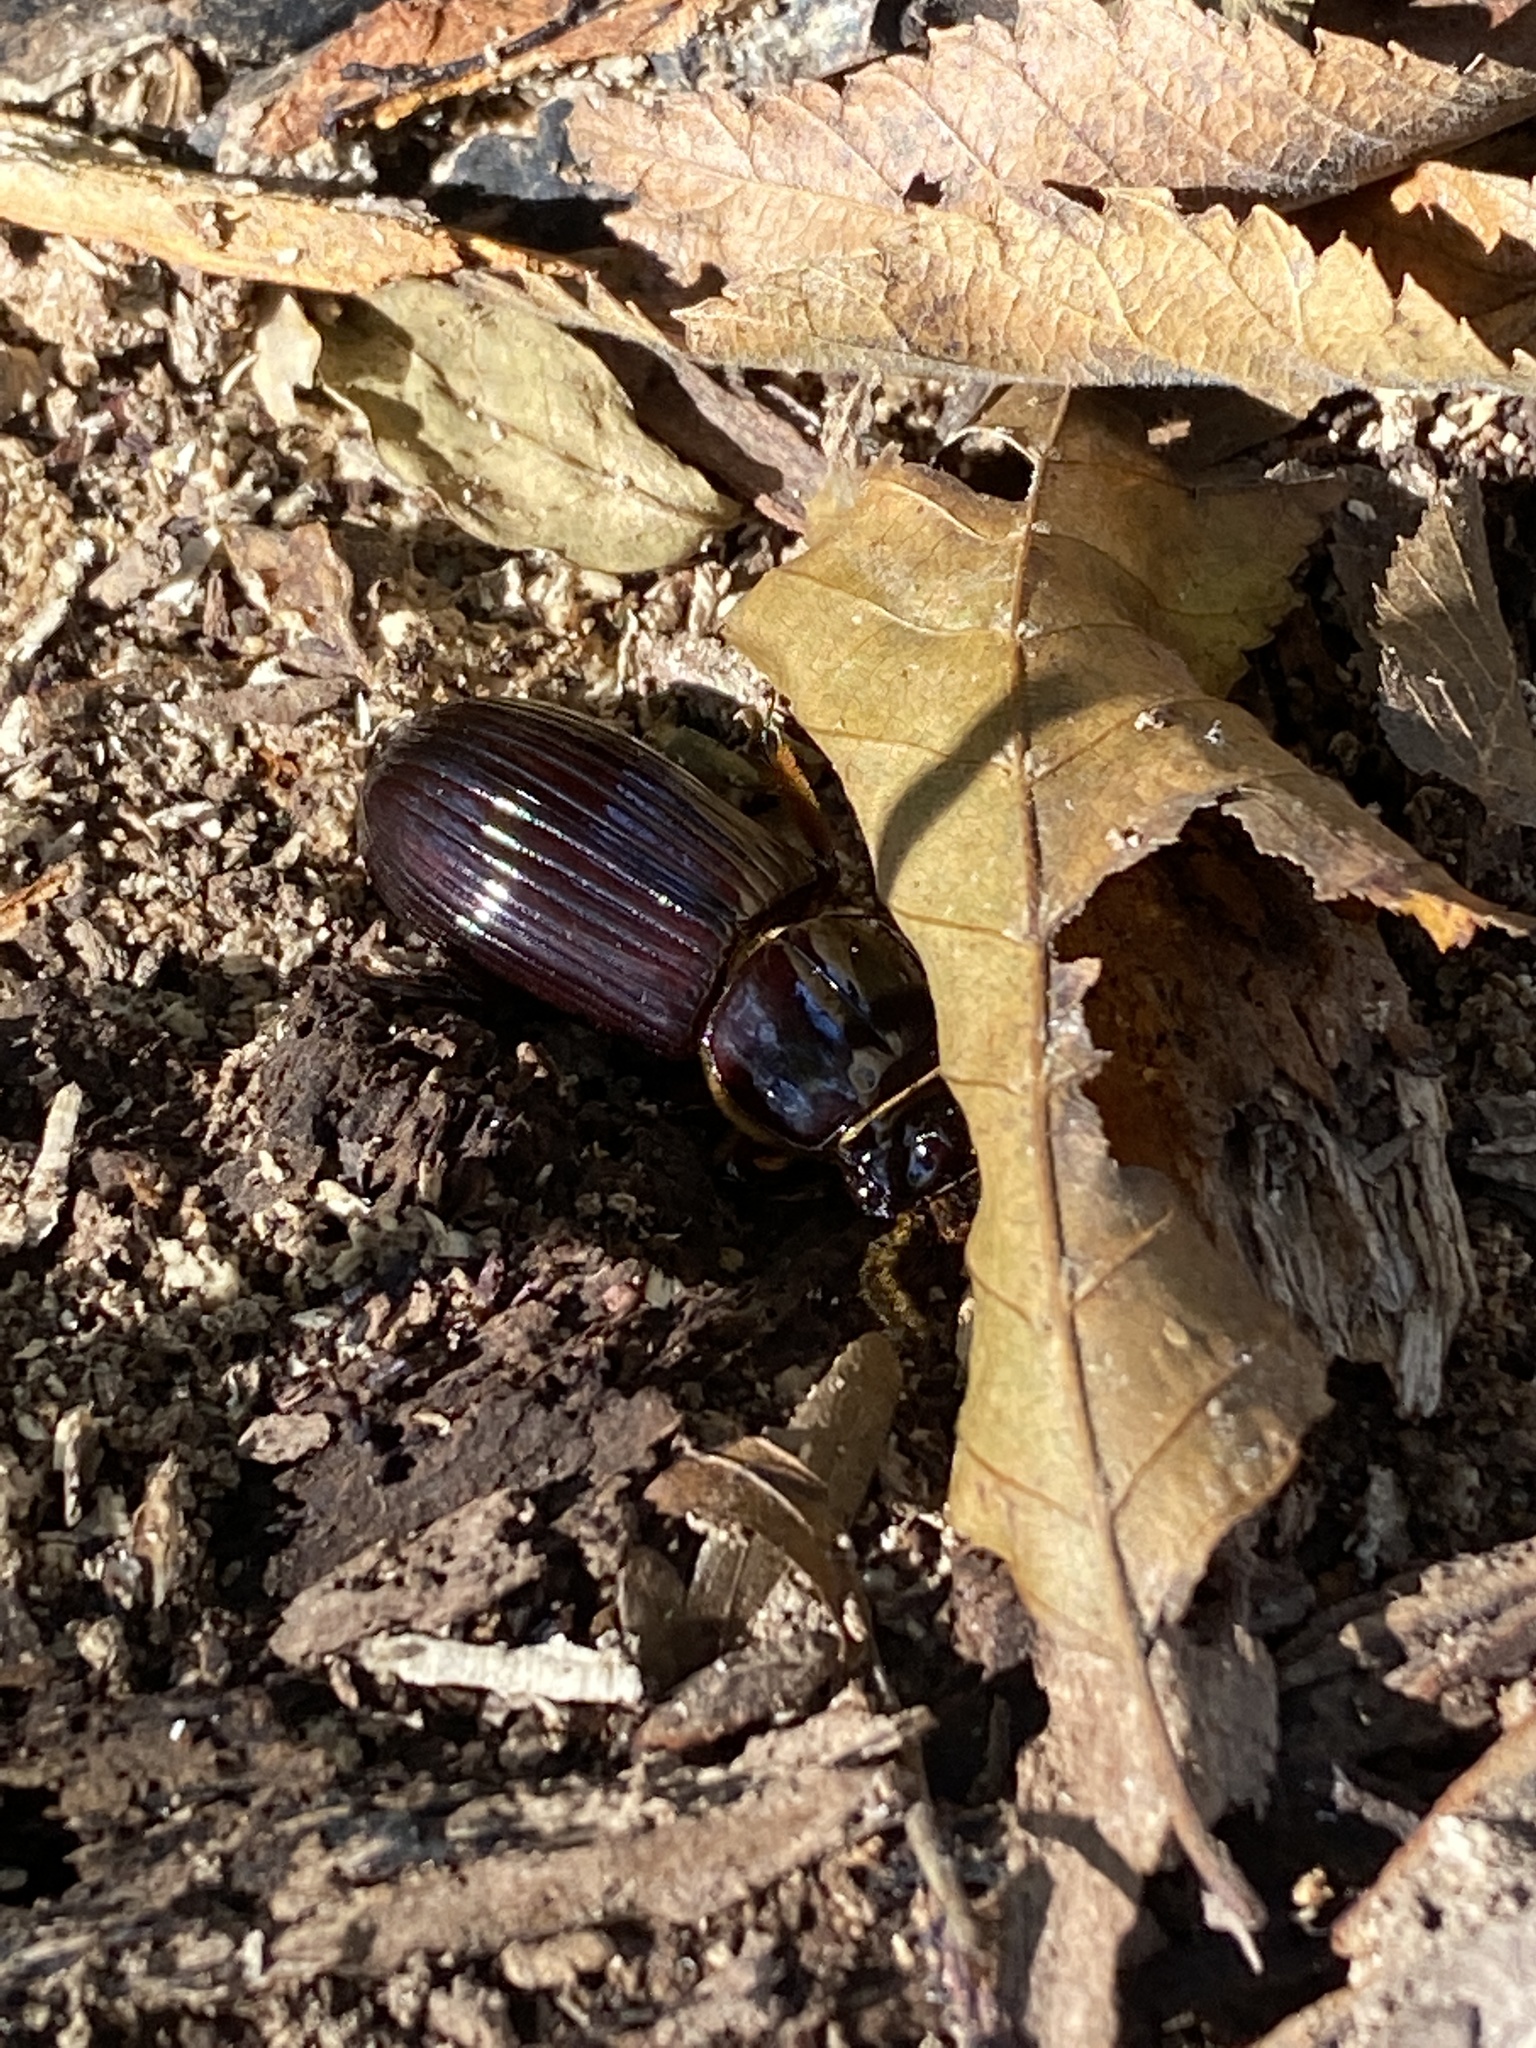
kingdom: Animalia
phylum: Arthropoda
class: Insecta
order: Coleoptera
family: Passalidae
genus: Odontotaenius
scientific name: Odontotaenius disjunctus
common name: Patent leather beetle
